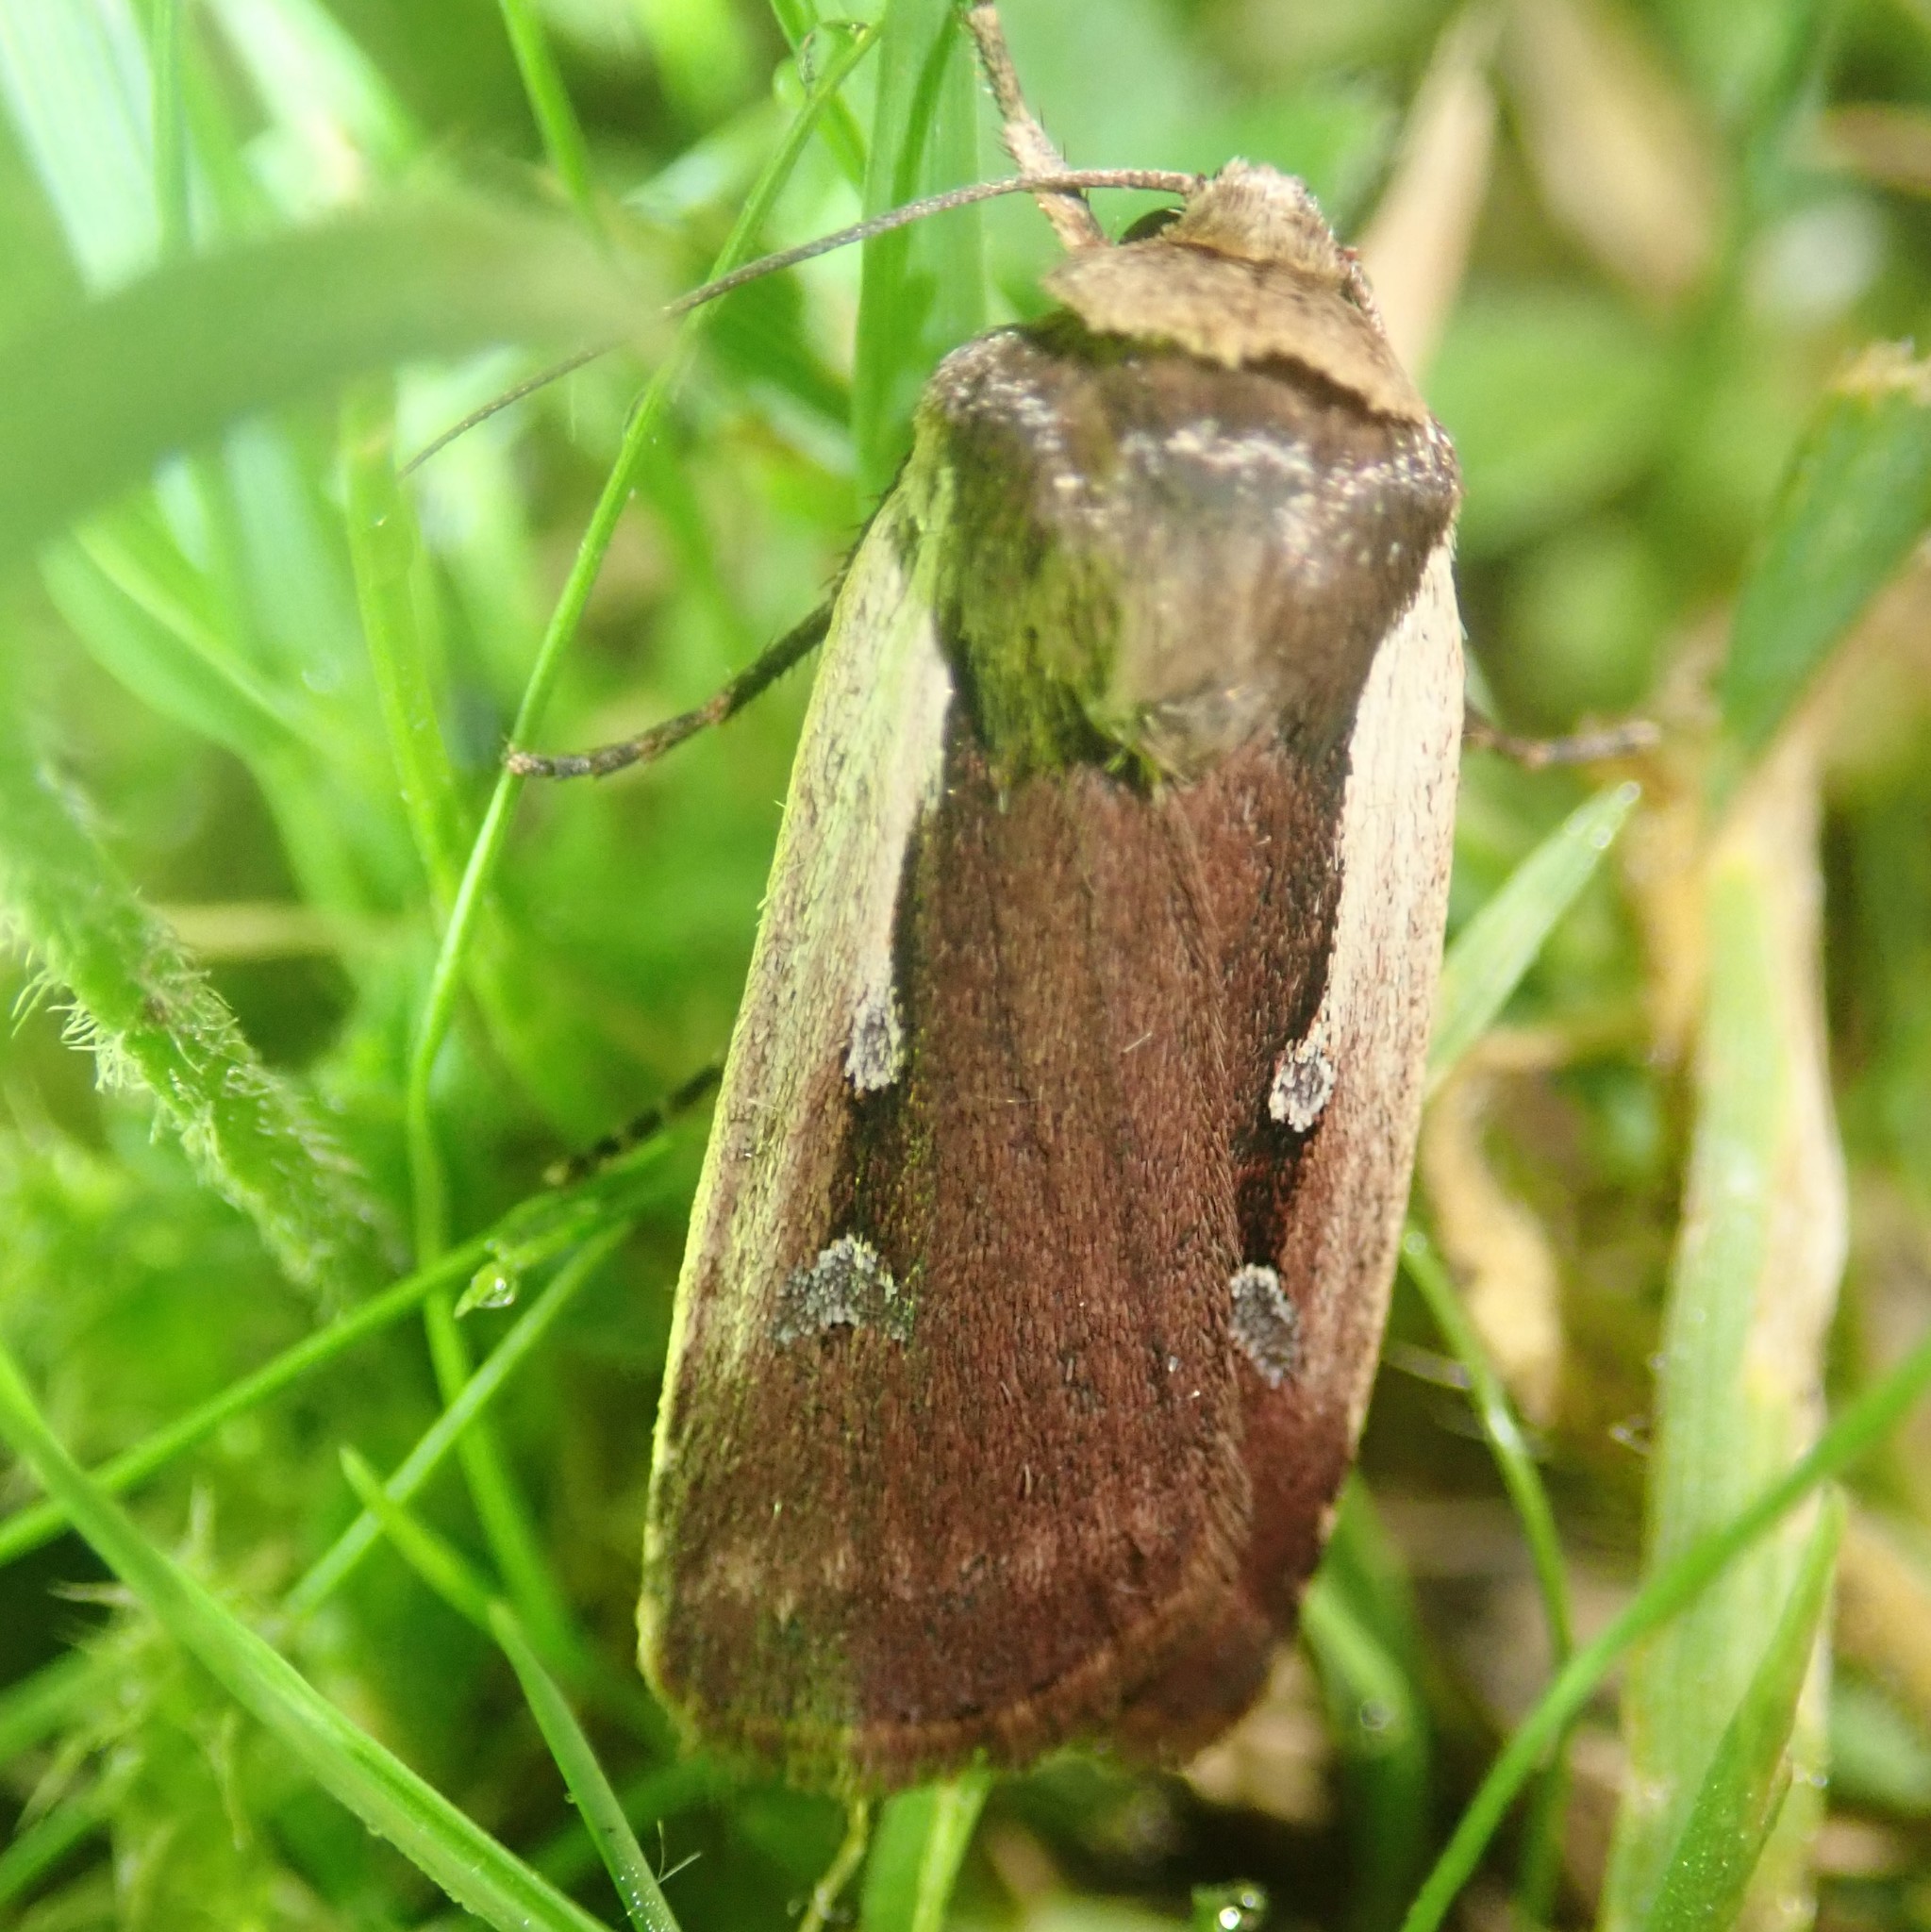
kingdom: Animalia
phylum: Arthropoda
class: Insecta
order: Lepidoptera
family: Noctuidae
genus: Ochropleura
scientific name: Ochropleura plecta
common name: Flame shoulder
